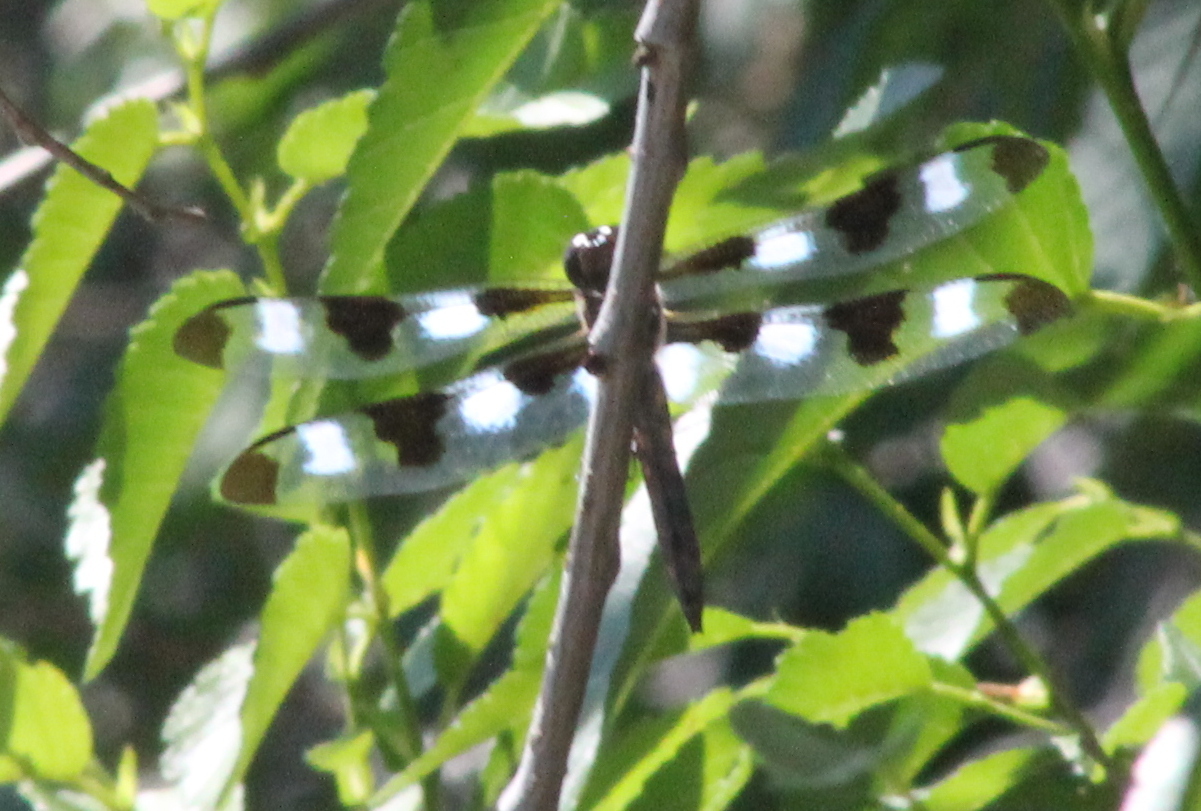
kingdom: Animalia
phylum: Arthropoda
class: Insecta
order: Odonata
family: Libellulidae
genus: Libellula
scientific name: Libellula pulchella
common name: Twelve-spotted skimmer
